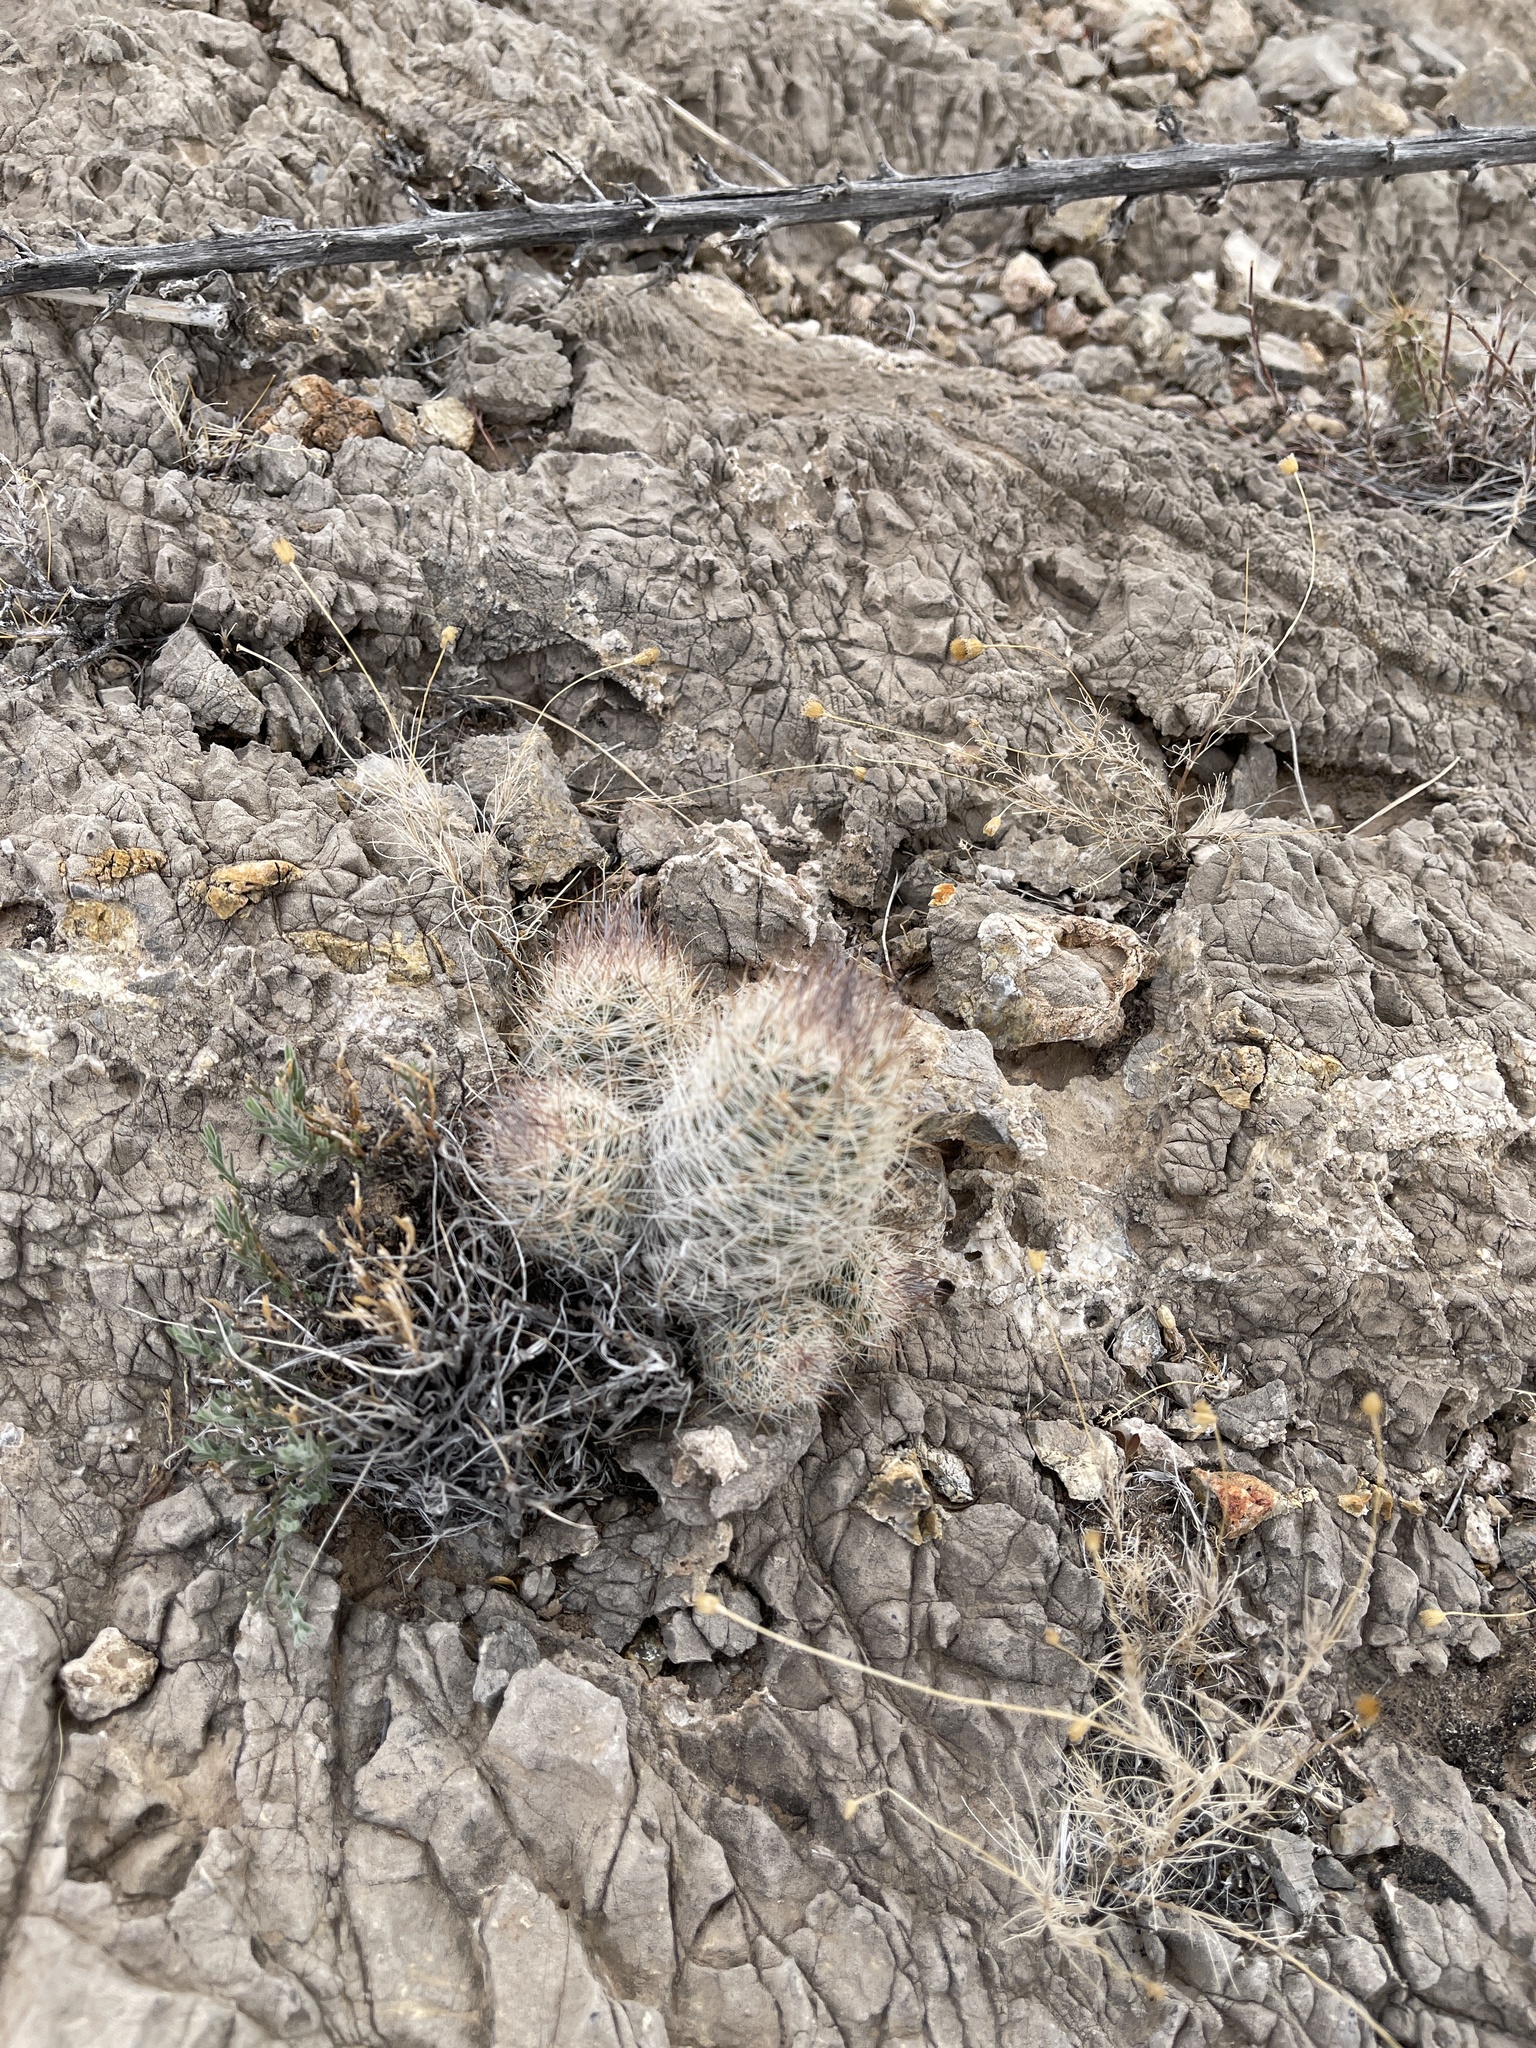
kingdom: Plantae
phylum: Tracheophyta
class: Magnoliopsida
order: Caryophyllales
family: Cactaceae
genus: Pelecyphora
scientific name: Pelecyphora tuberculosa
